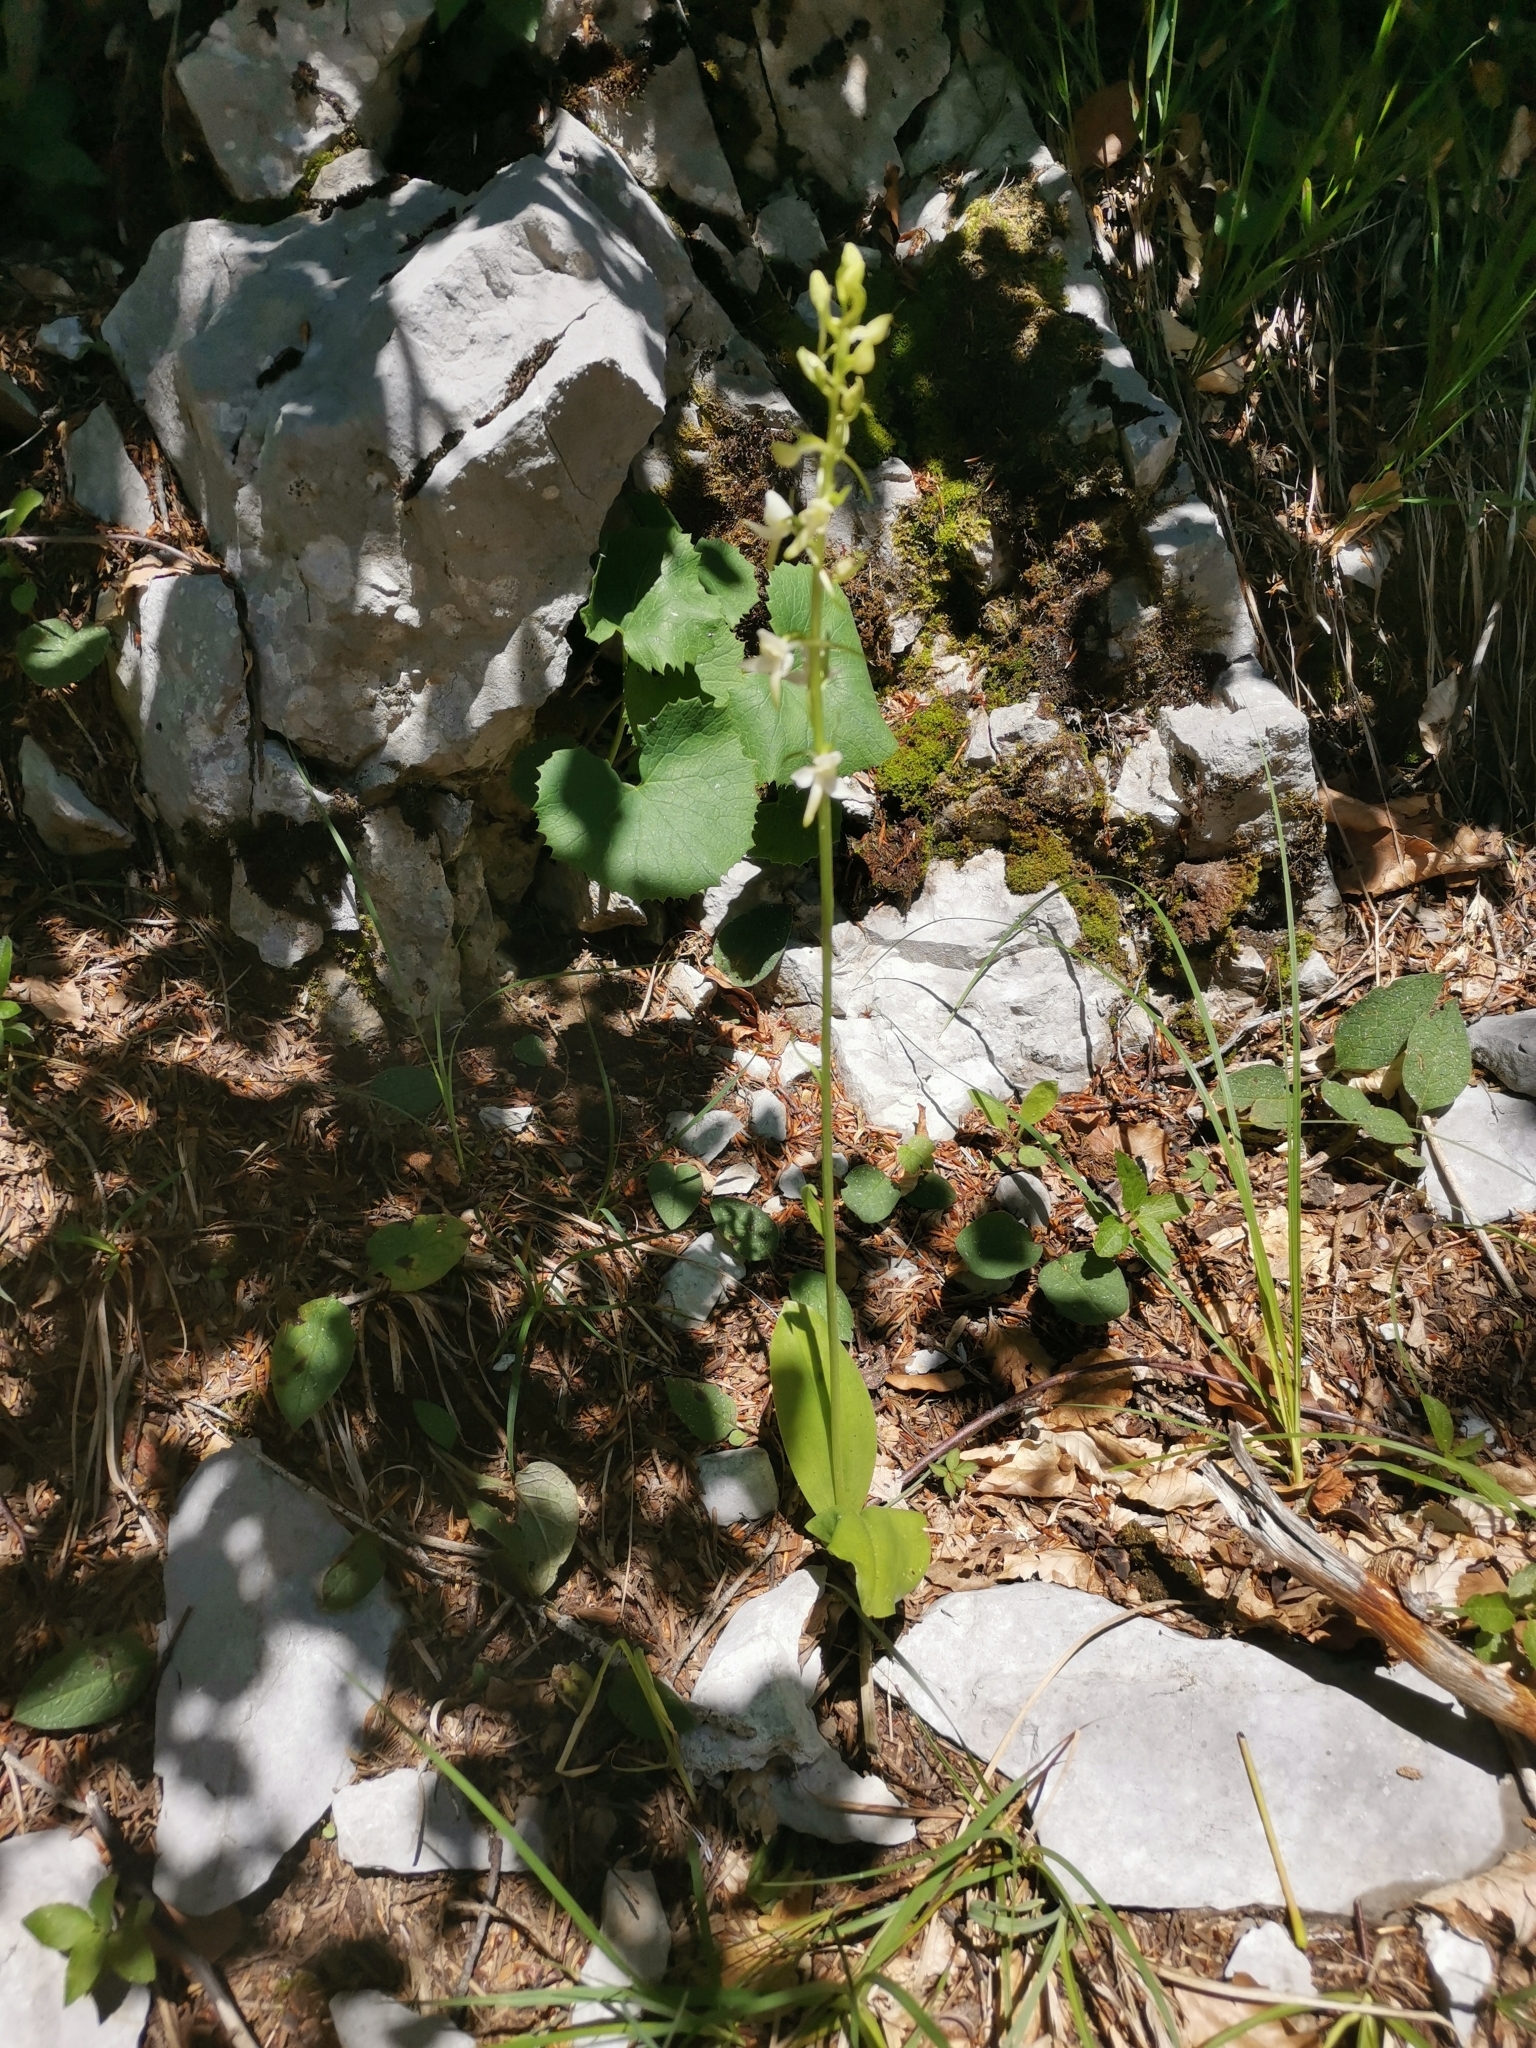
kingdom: Plantae
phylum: Tracheophyta
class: Liliopsida
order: Asparagales
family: Orchidaceae
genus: Platanthera
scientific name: Platanthera bifolia
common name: Lesser butterfly-orchid
